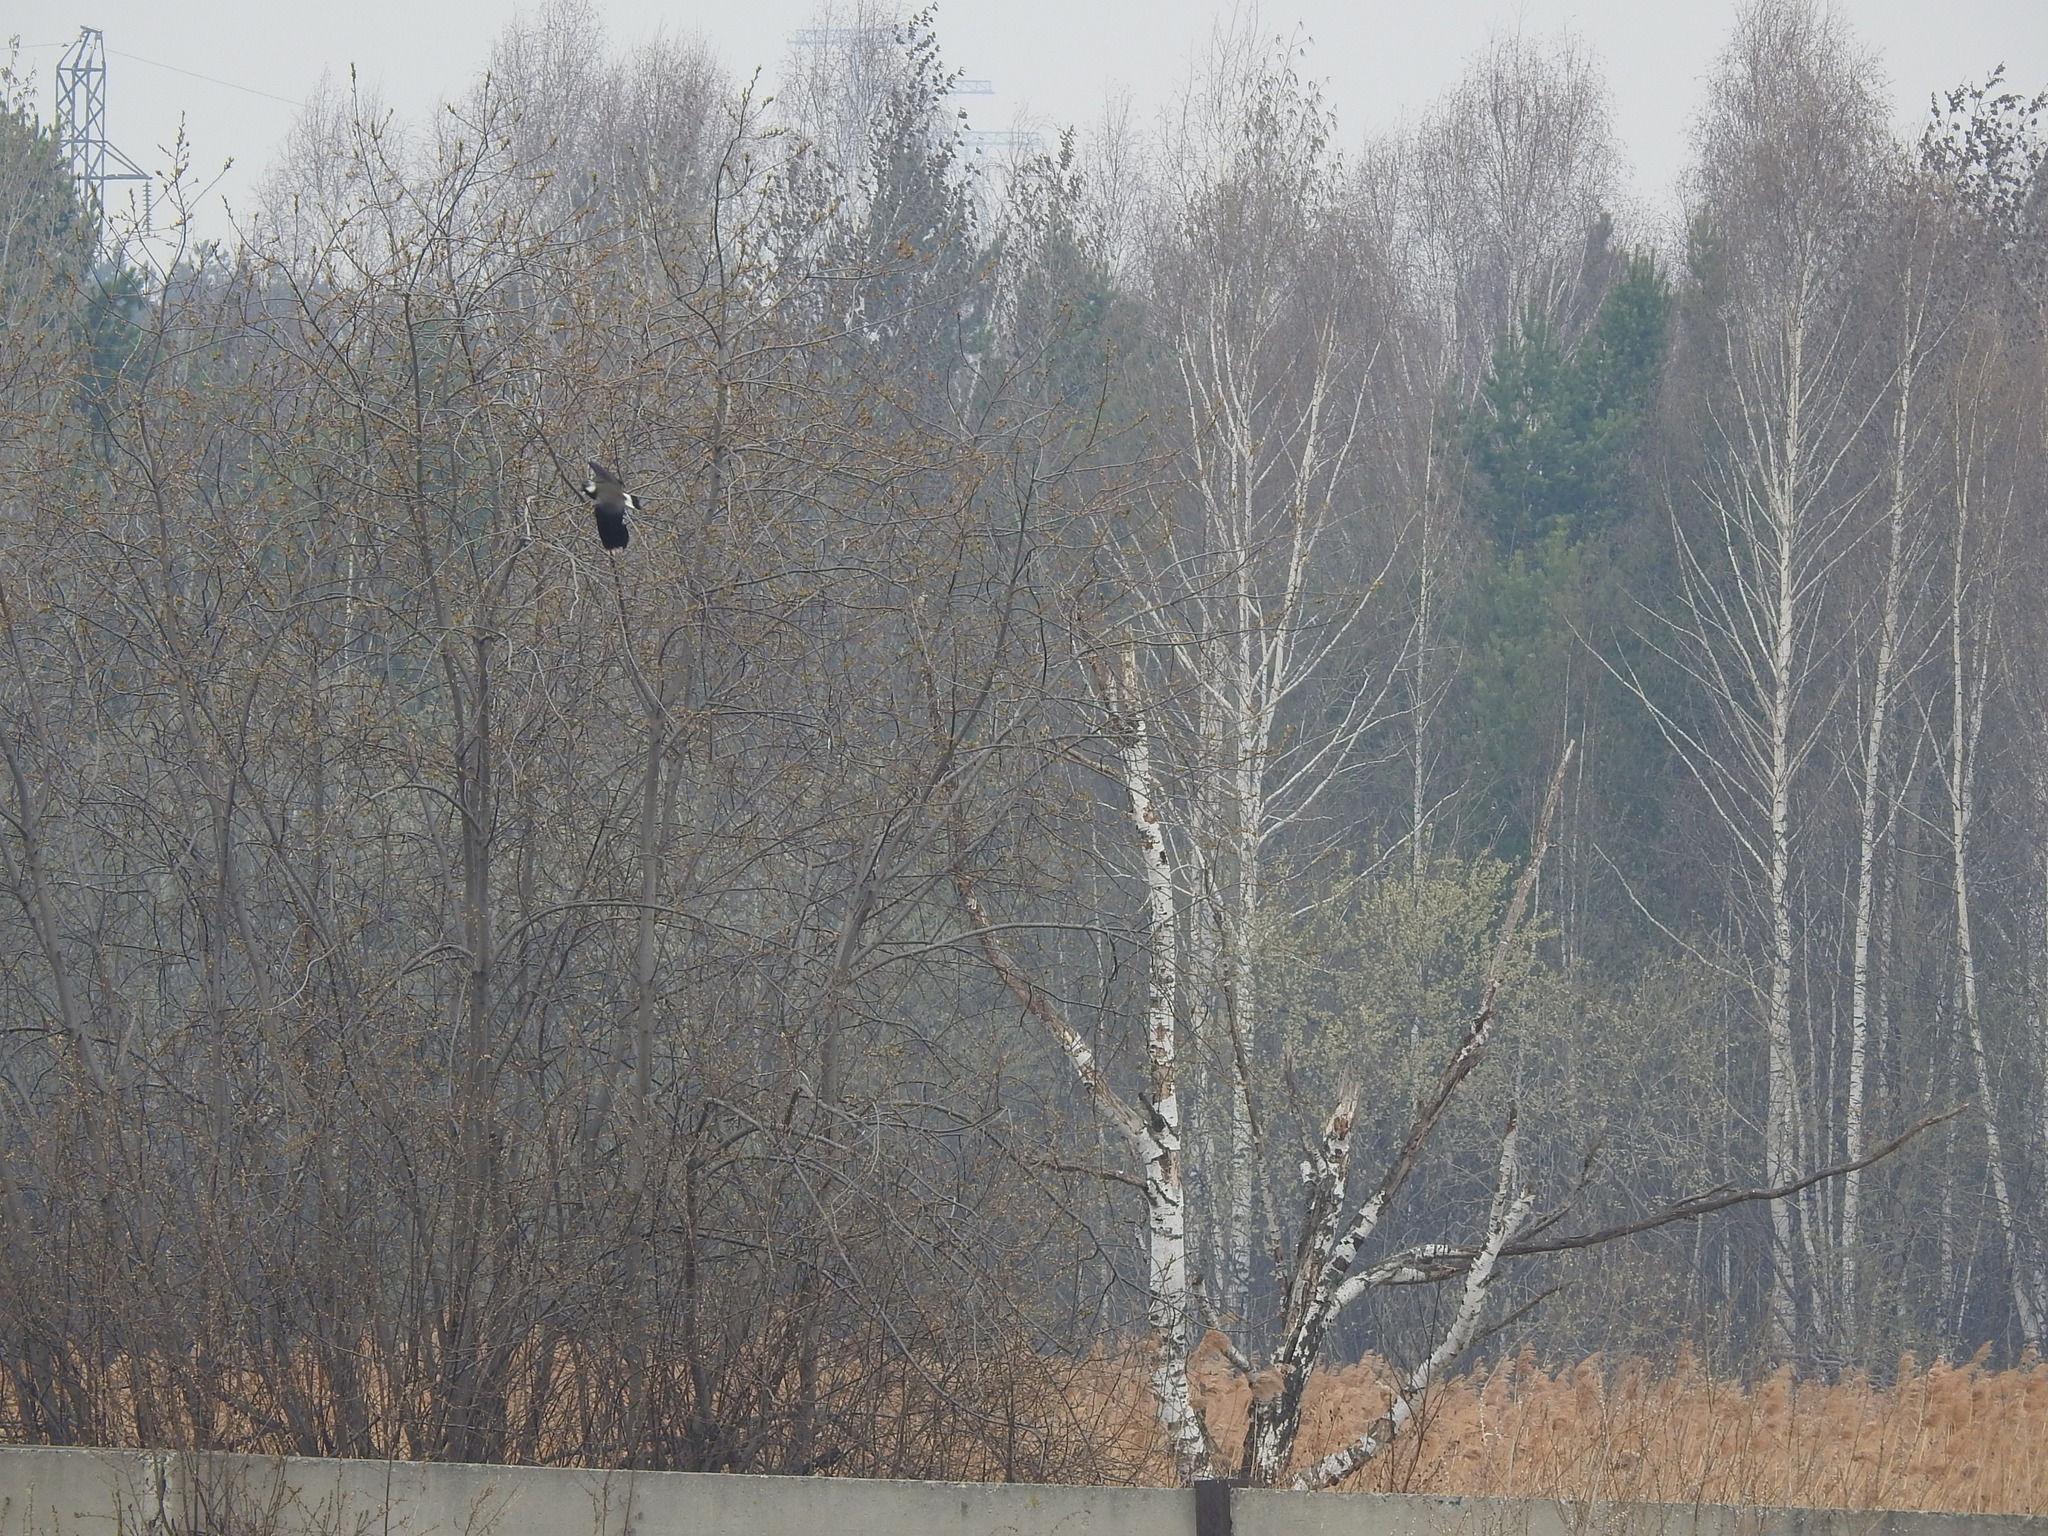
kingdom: Animalia
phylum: Chordata
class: Aves
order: Charadriiformes
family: Charadriidae
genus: Vanellus
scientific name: Vanellus vanellus
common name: Northern lapwing
